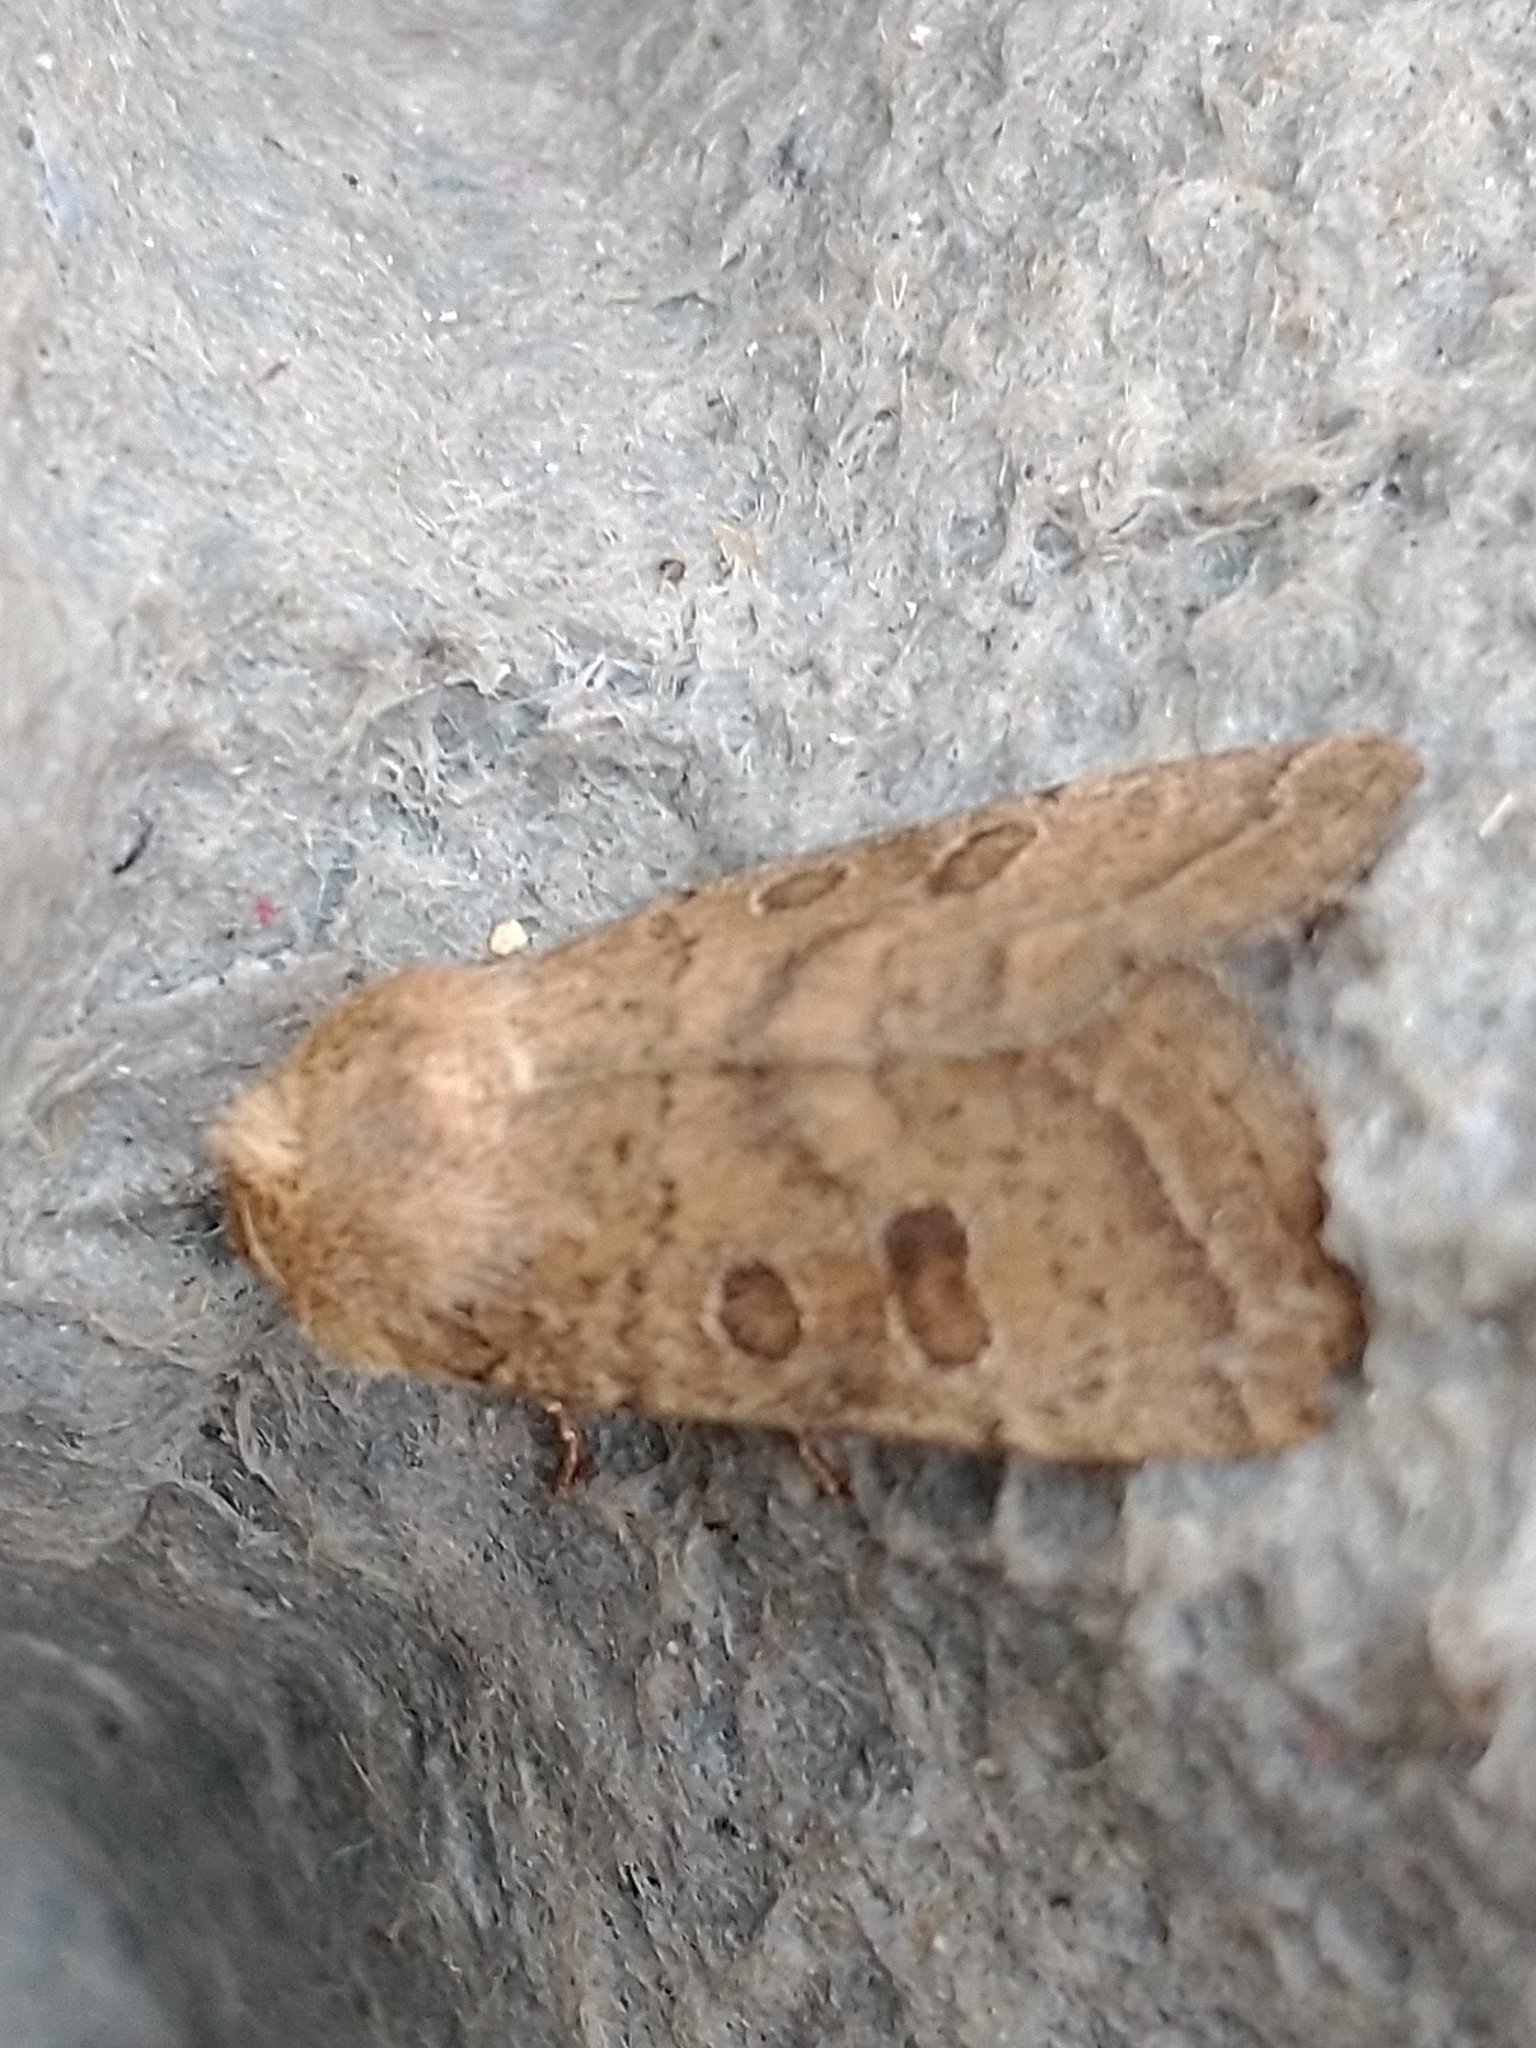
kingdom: Animalia
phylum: Arthropoda
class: Insecta
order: Lepidoptera
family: Noctuidae
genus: Hoplodrina
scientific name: Hoplodrina octogenaria
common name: Uncertain
